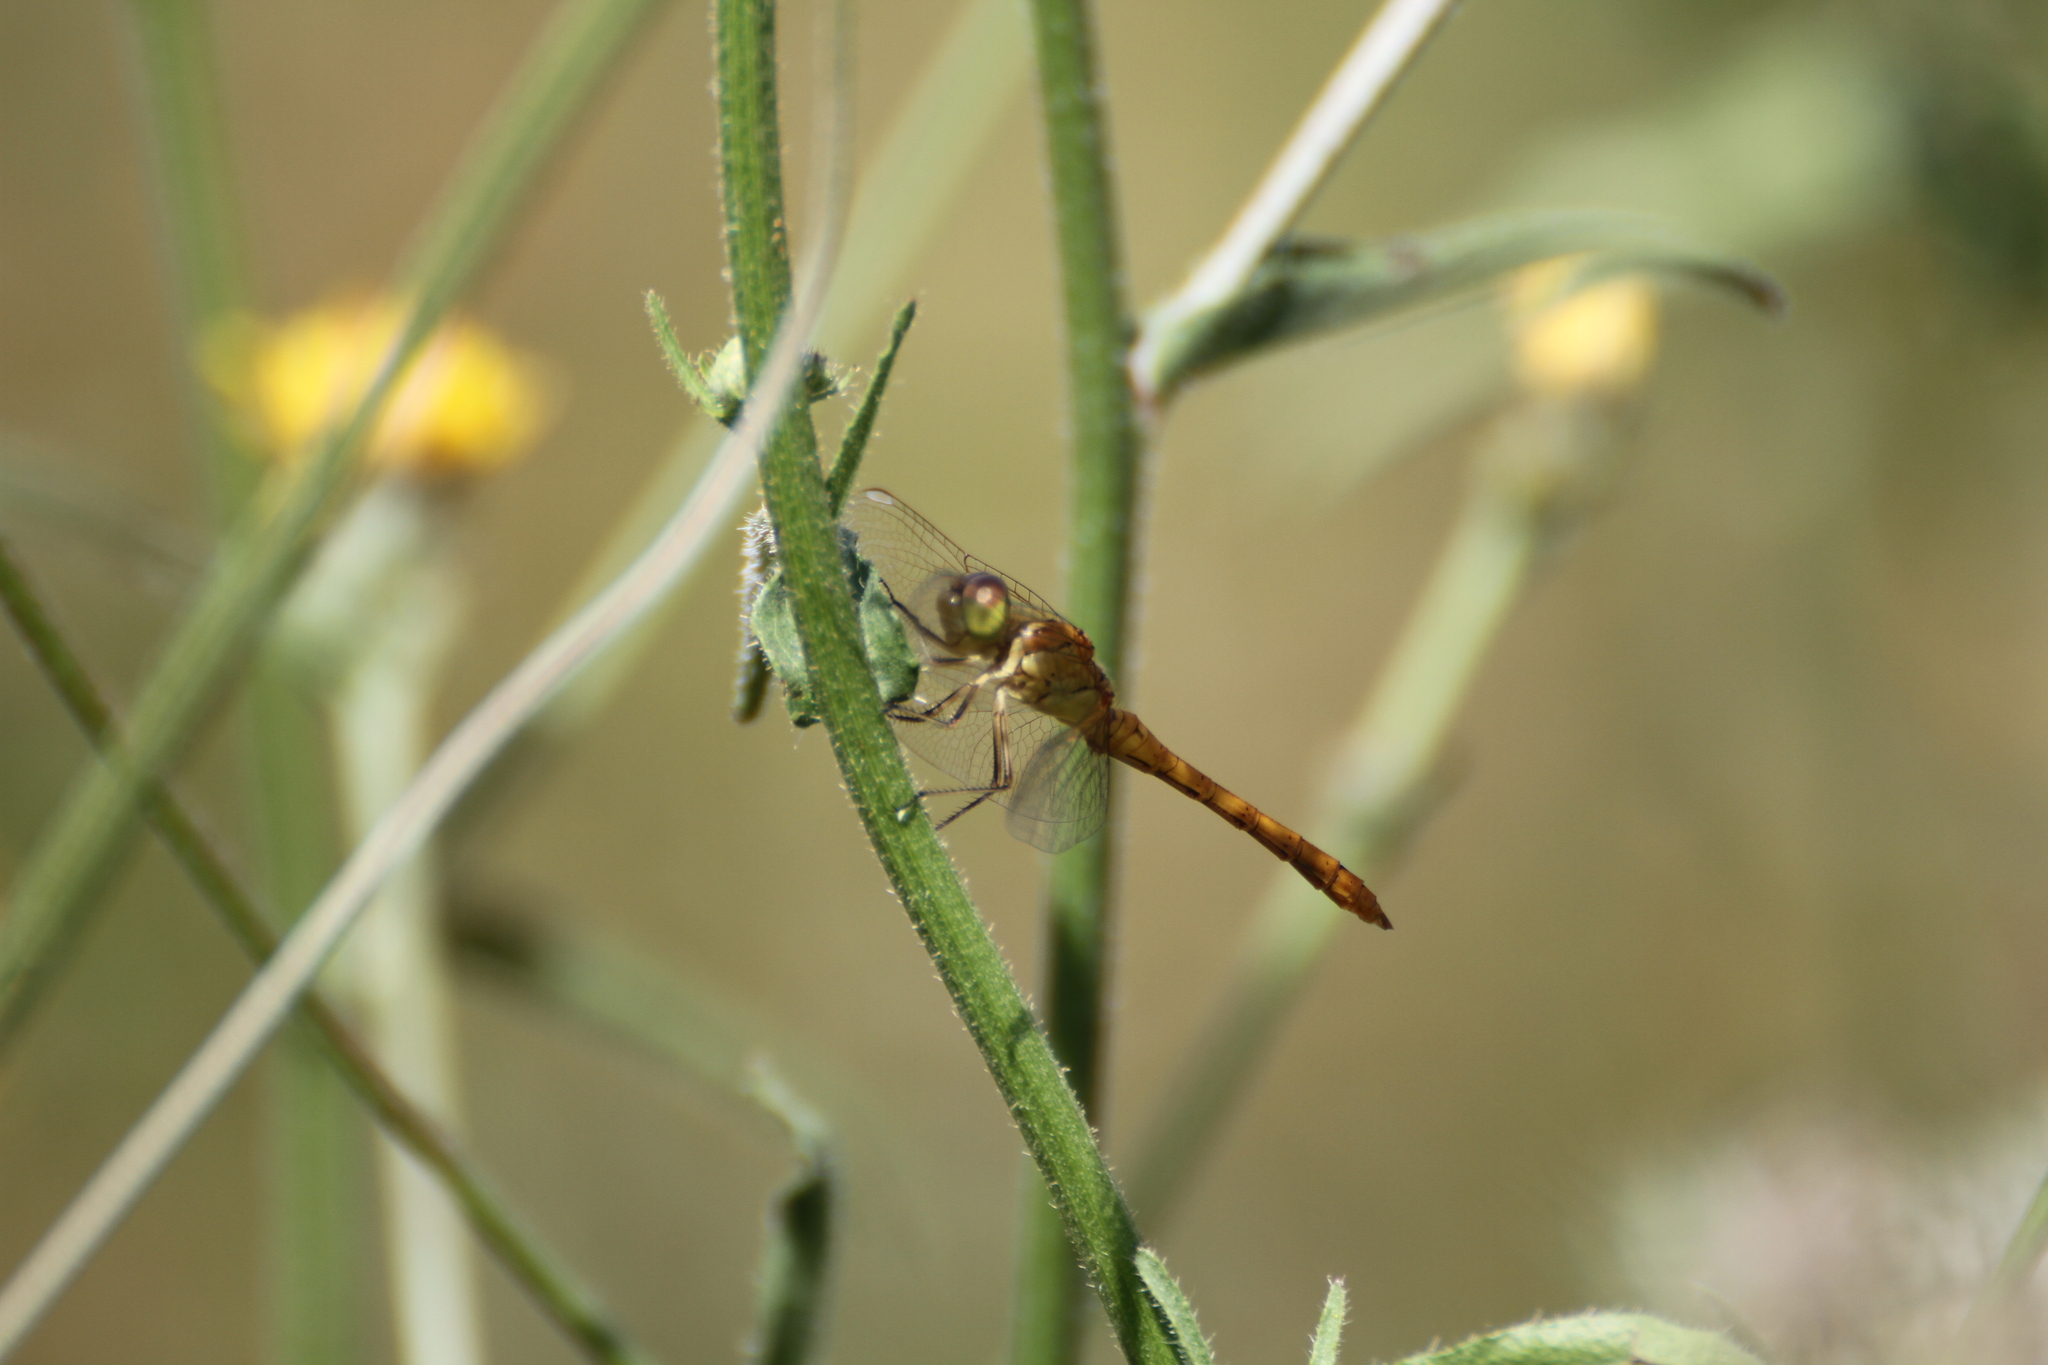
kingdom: Animalia
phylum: Arthropoda
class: Insecta
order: Odonata
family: Libellulidae
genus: Sympetrum
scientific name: Sympetrum meridionale
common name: Southern darter
